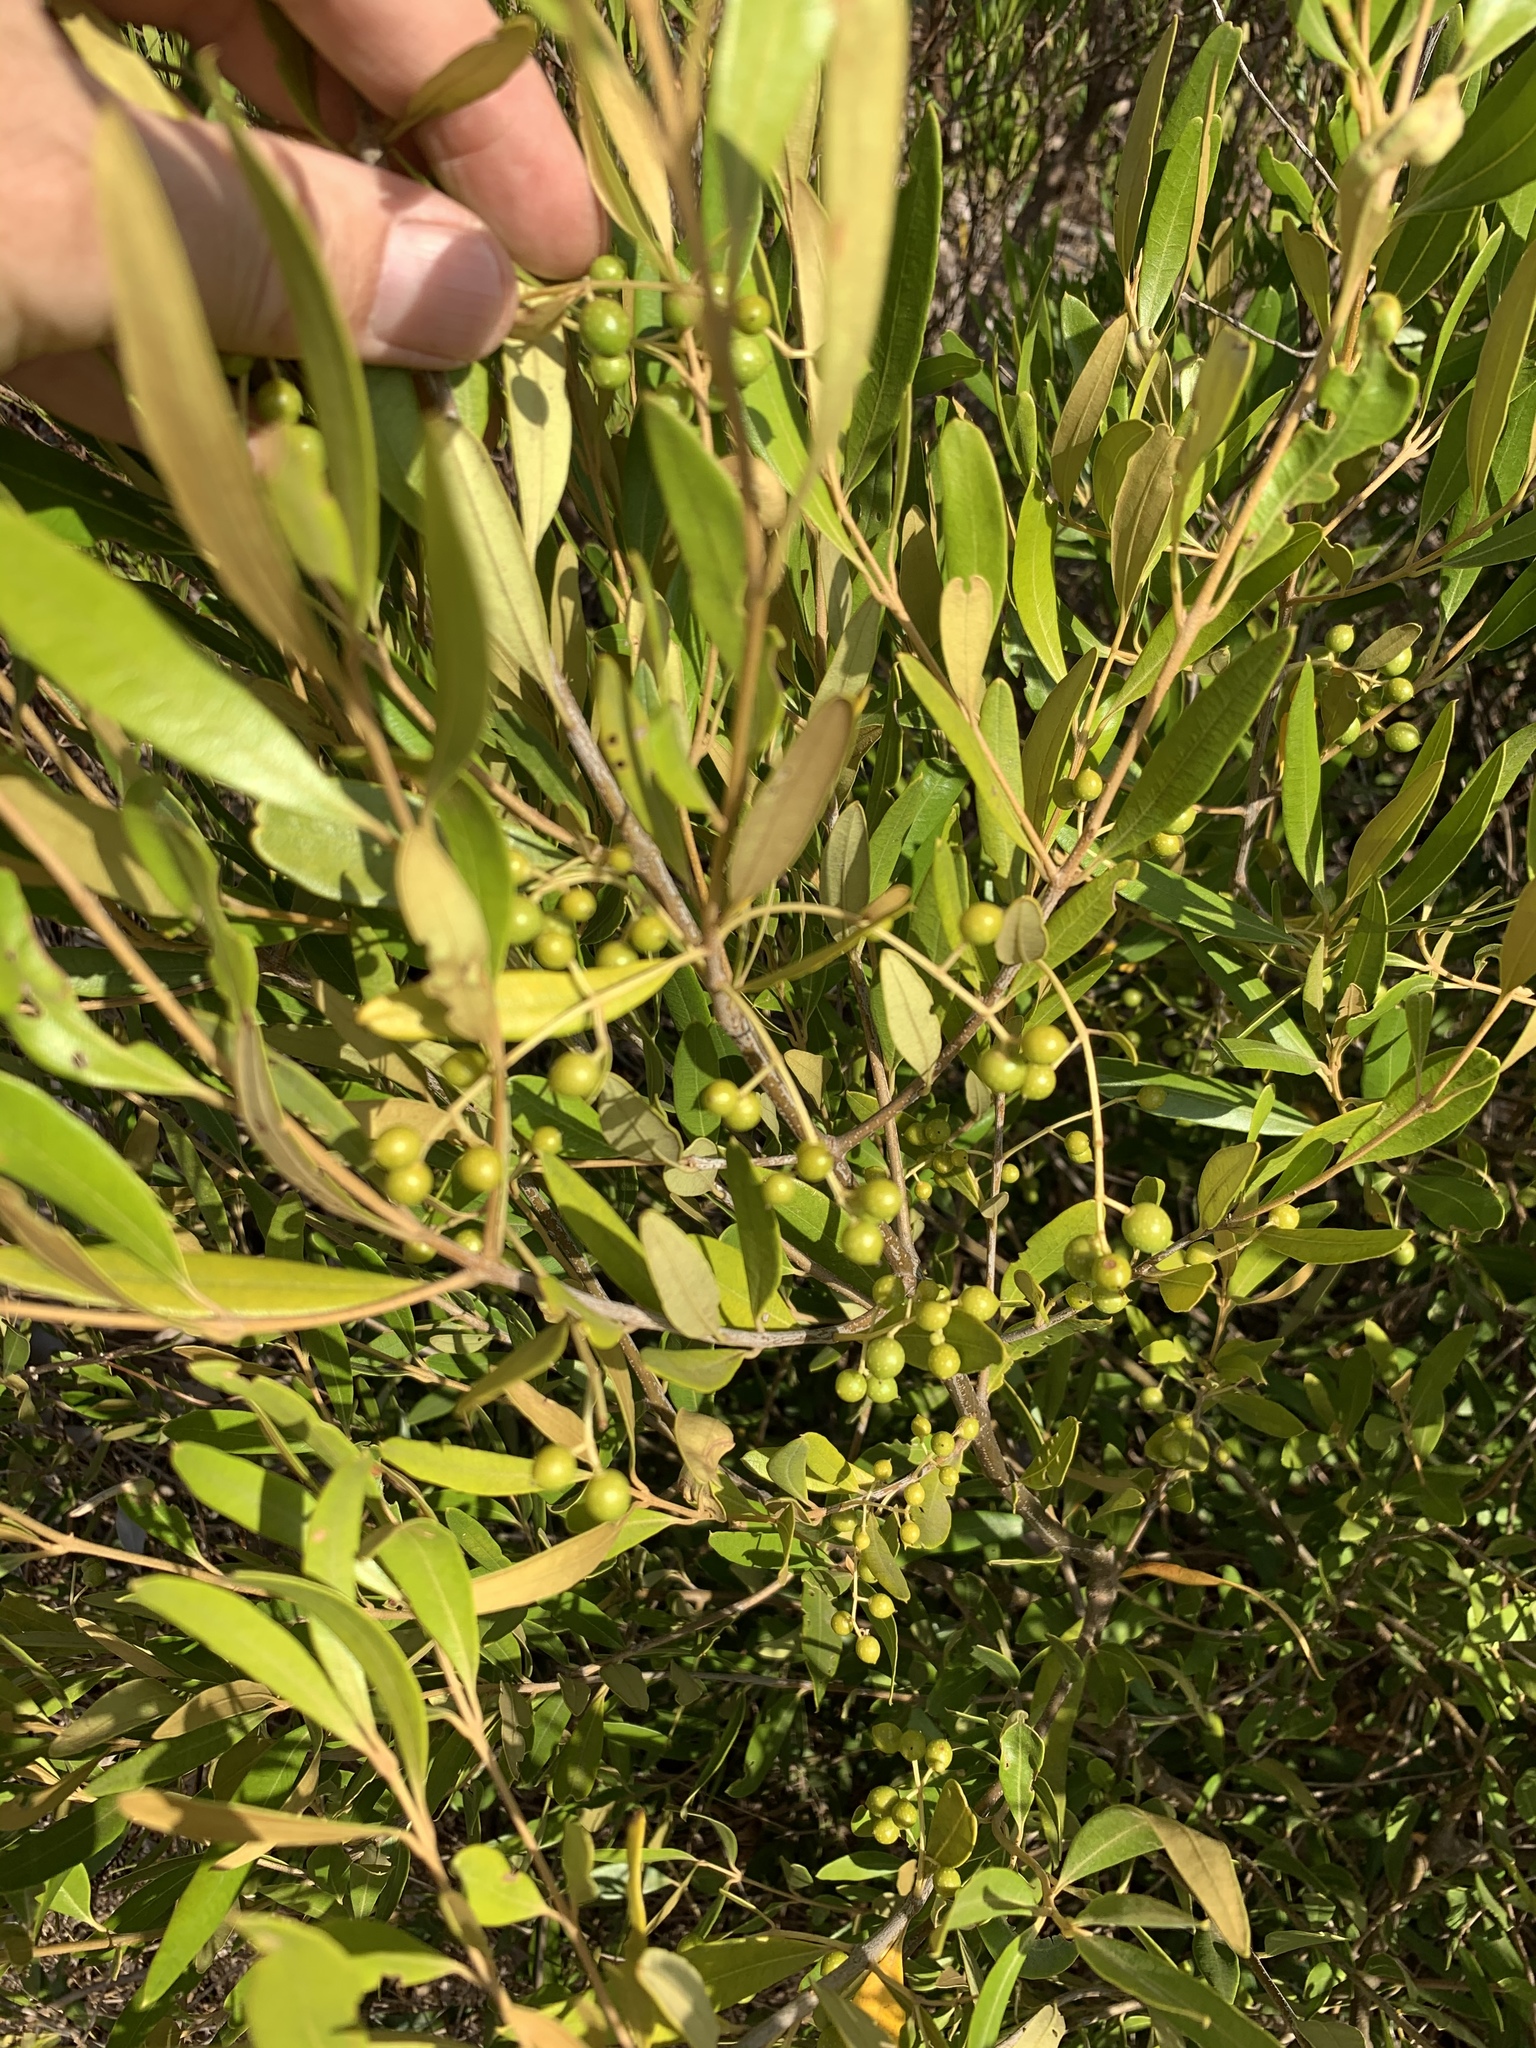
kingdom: Plantae
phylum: Tracheophyta
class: Magnoliopsida
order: Lamiales
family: Oleaceae
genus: Olea
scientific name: Olea europaea
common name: Olive
